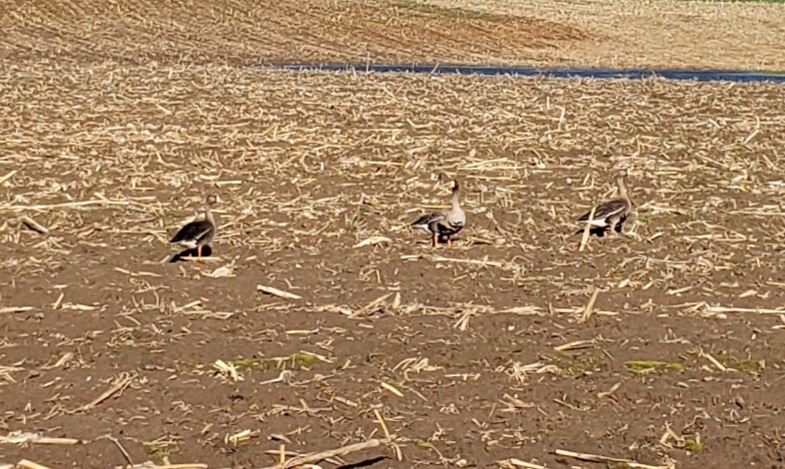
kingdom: Animalia
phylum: Chordata
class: Aves
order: Anseriformes
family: Anatidae
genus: Anser
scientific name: Anser albifrons
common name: Greater white-fronted goose
